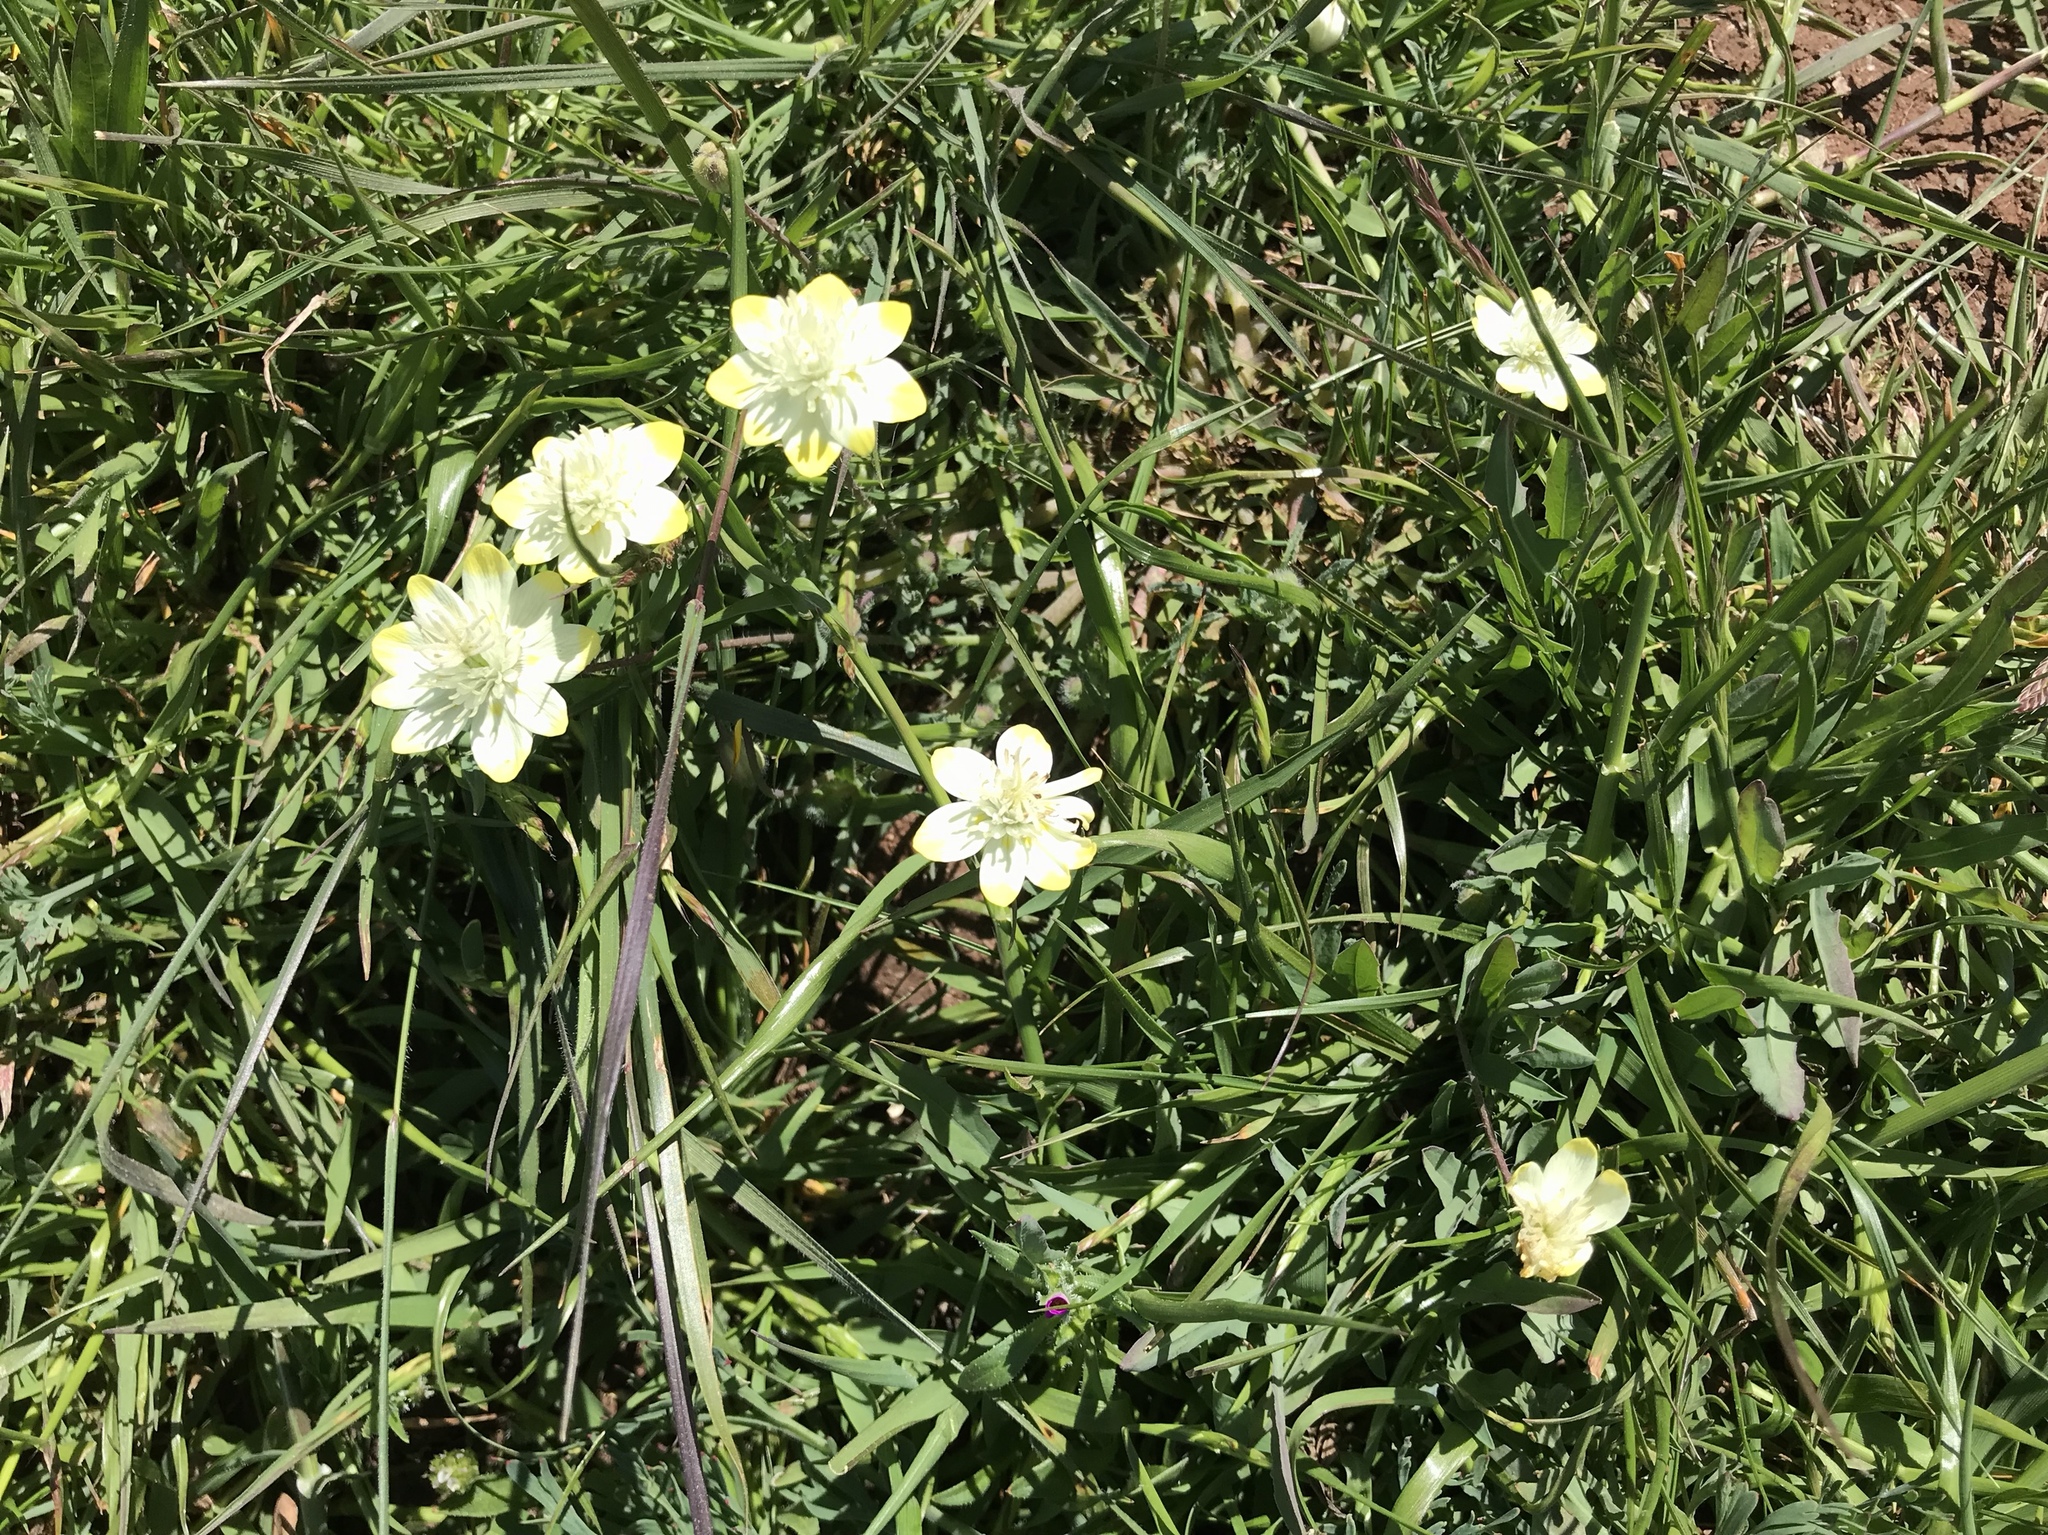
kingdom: Plantae
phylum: Tracheophyta
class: Magnoliopsida
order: Ranunculales
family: Papaveraceae
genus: Platystemon
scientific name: Platystemon californicus
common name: Cream-cups
